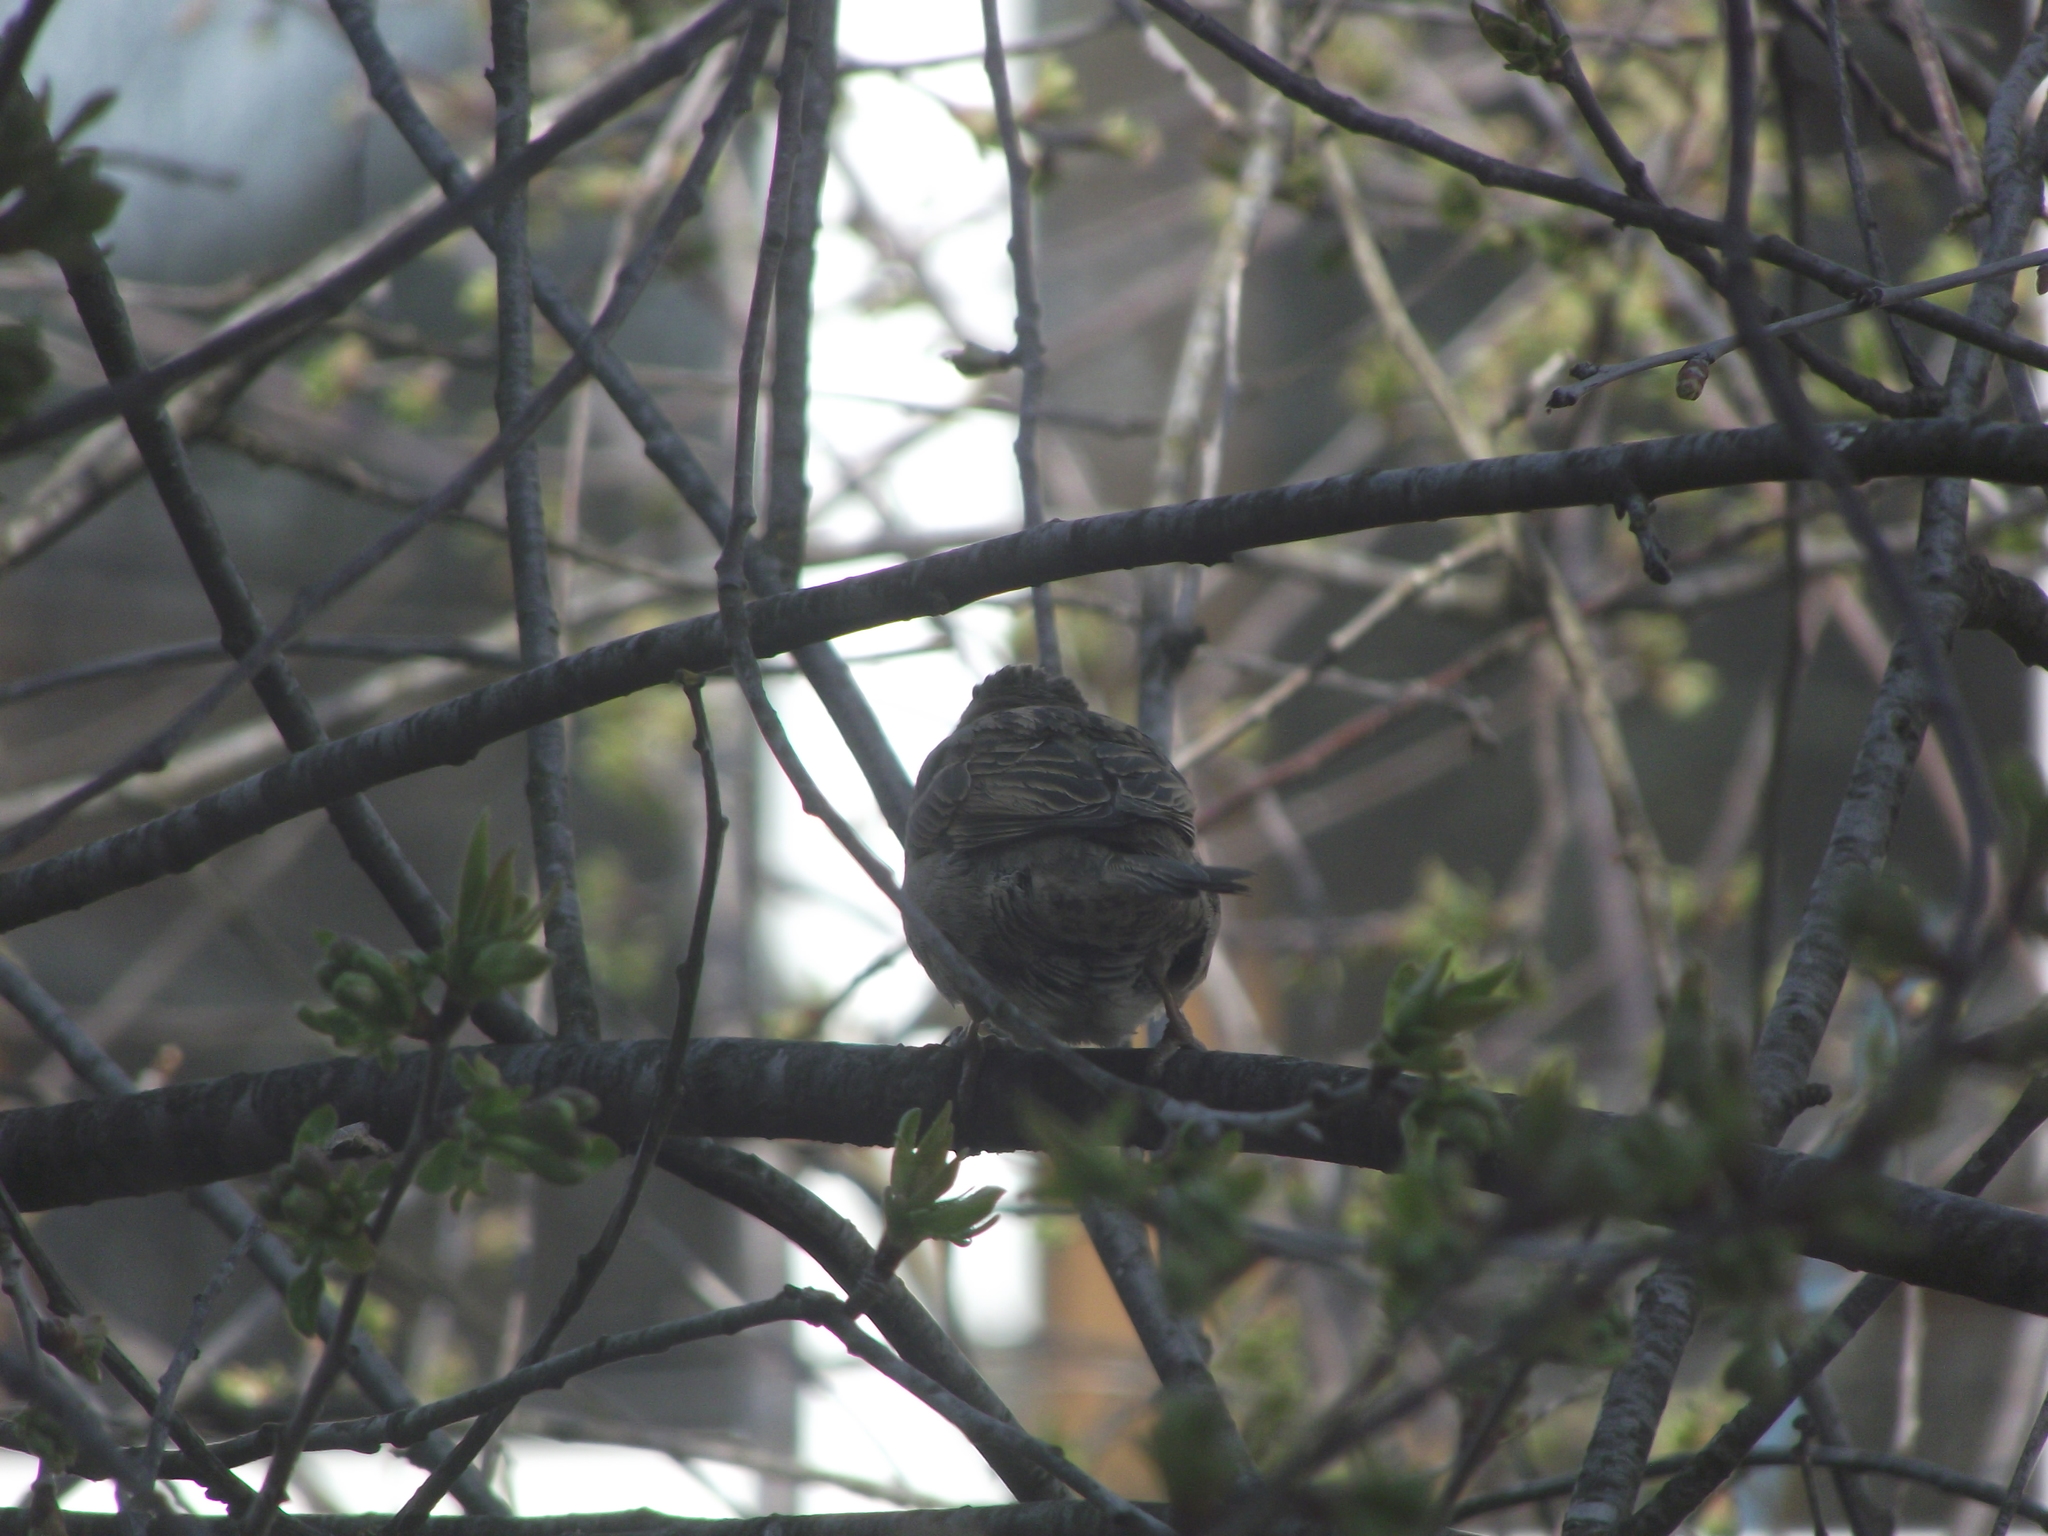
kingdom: Animalia
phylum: Chordata
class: Aves
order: Passeriformes
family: Passeridae
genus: Passer
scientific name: Passer domesticus
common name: House sparrow
